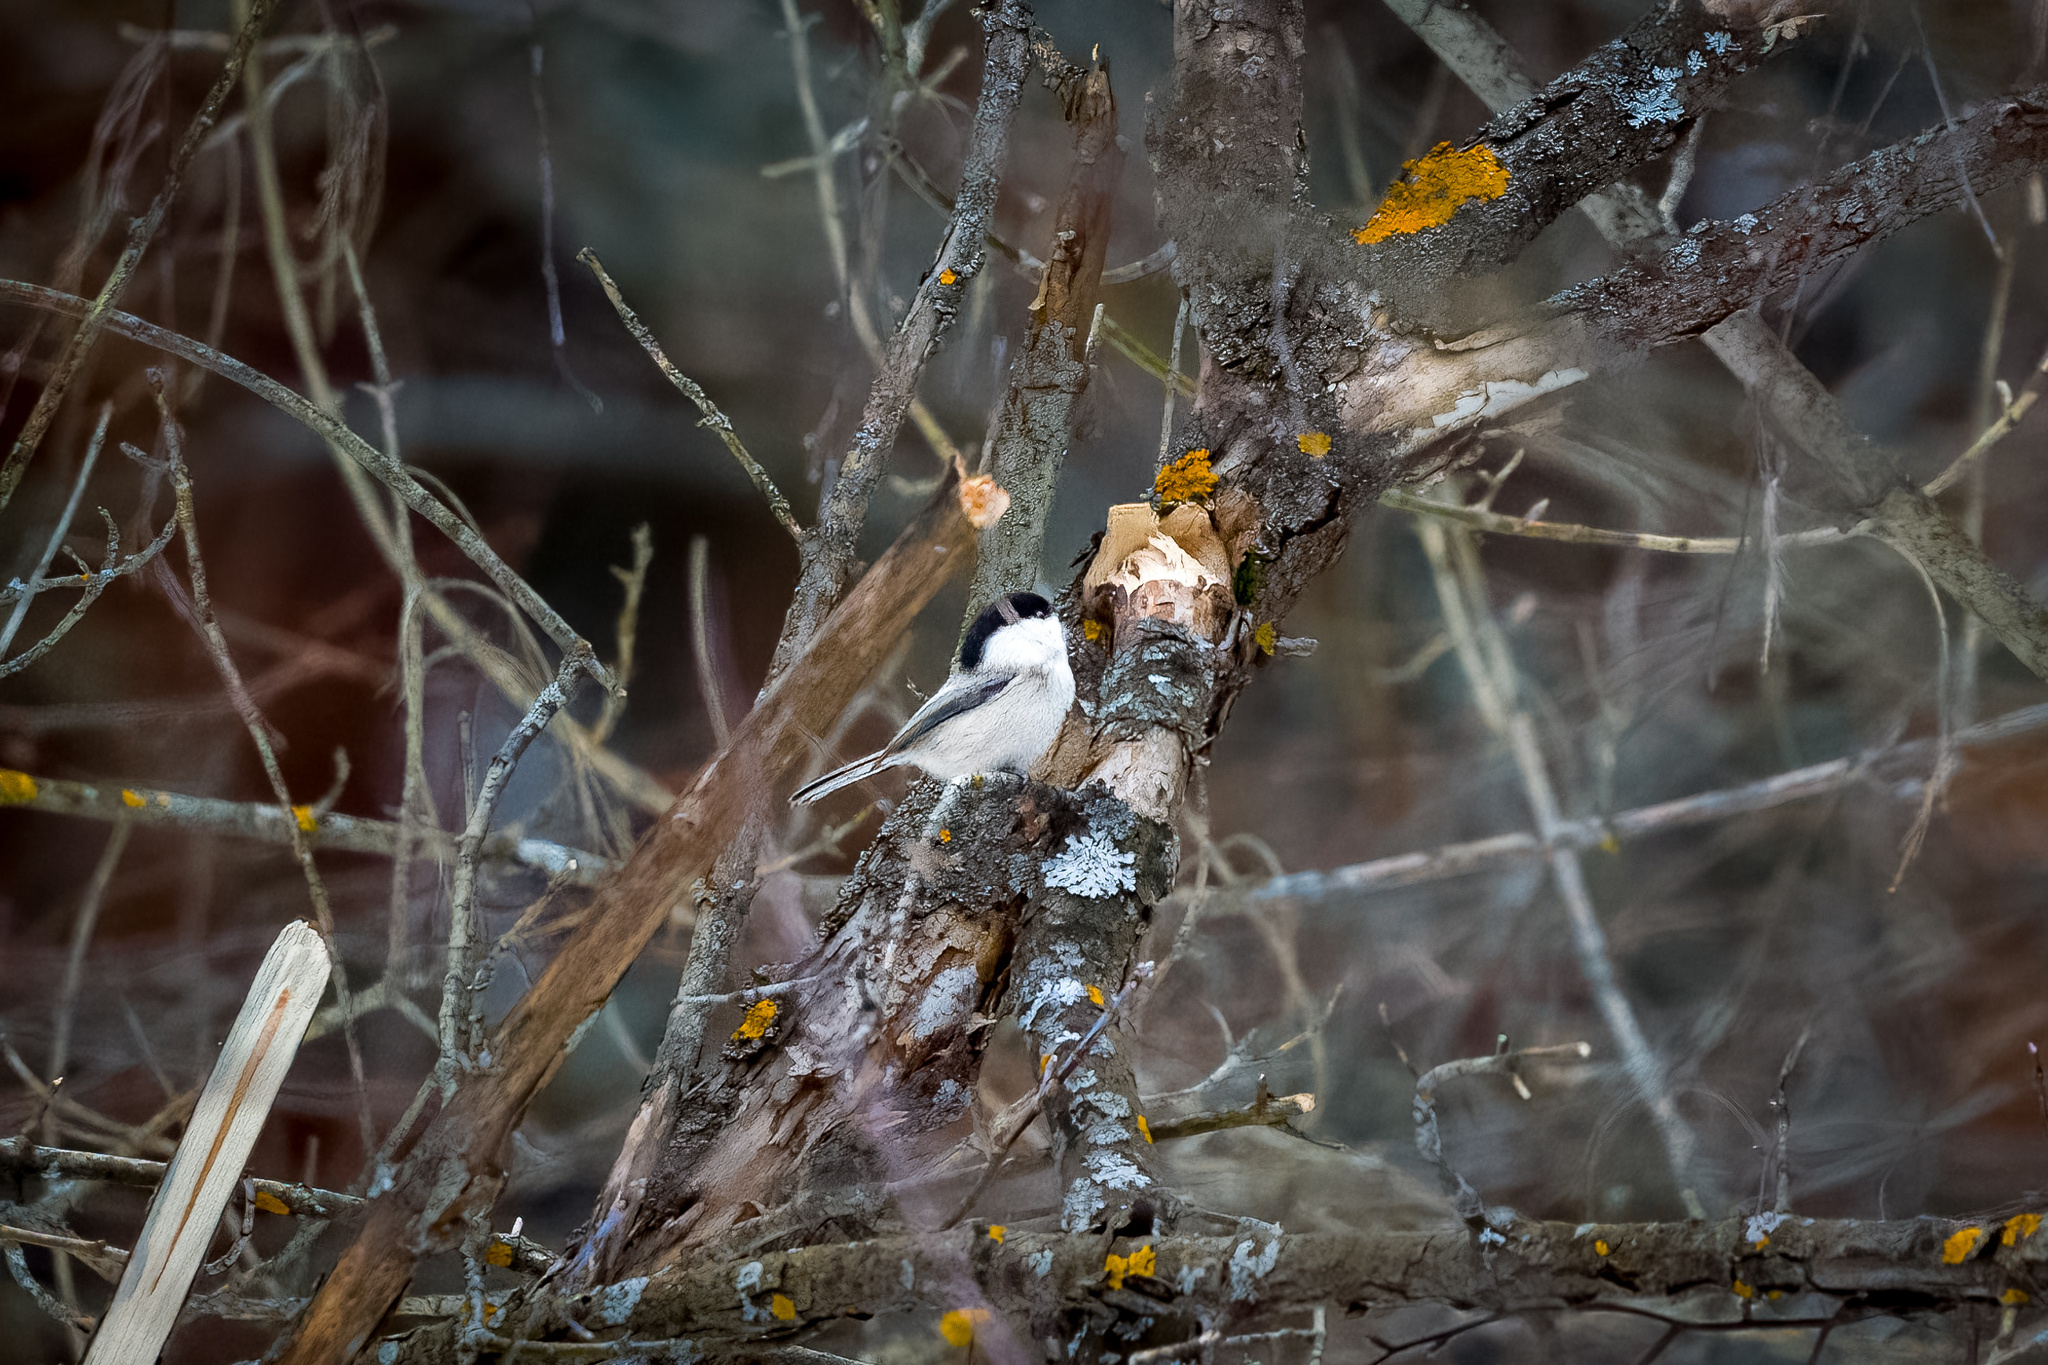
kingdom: Animalia
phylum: Chordata
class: Aves
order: Passeriformes
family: Paridae
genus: Poecile
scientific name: Poecile montanus
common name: Willow tit
